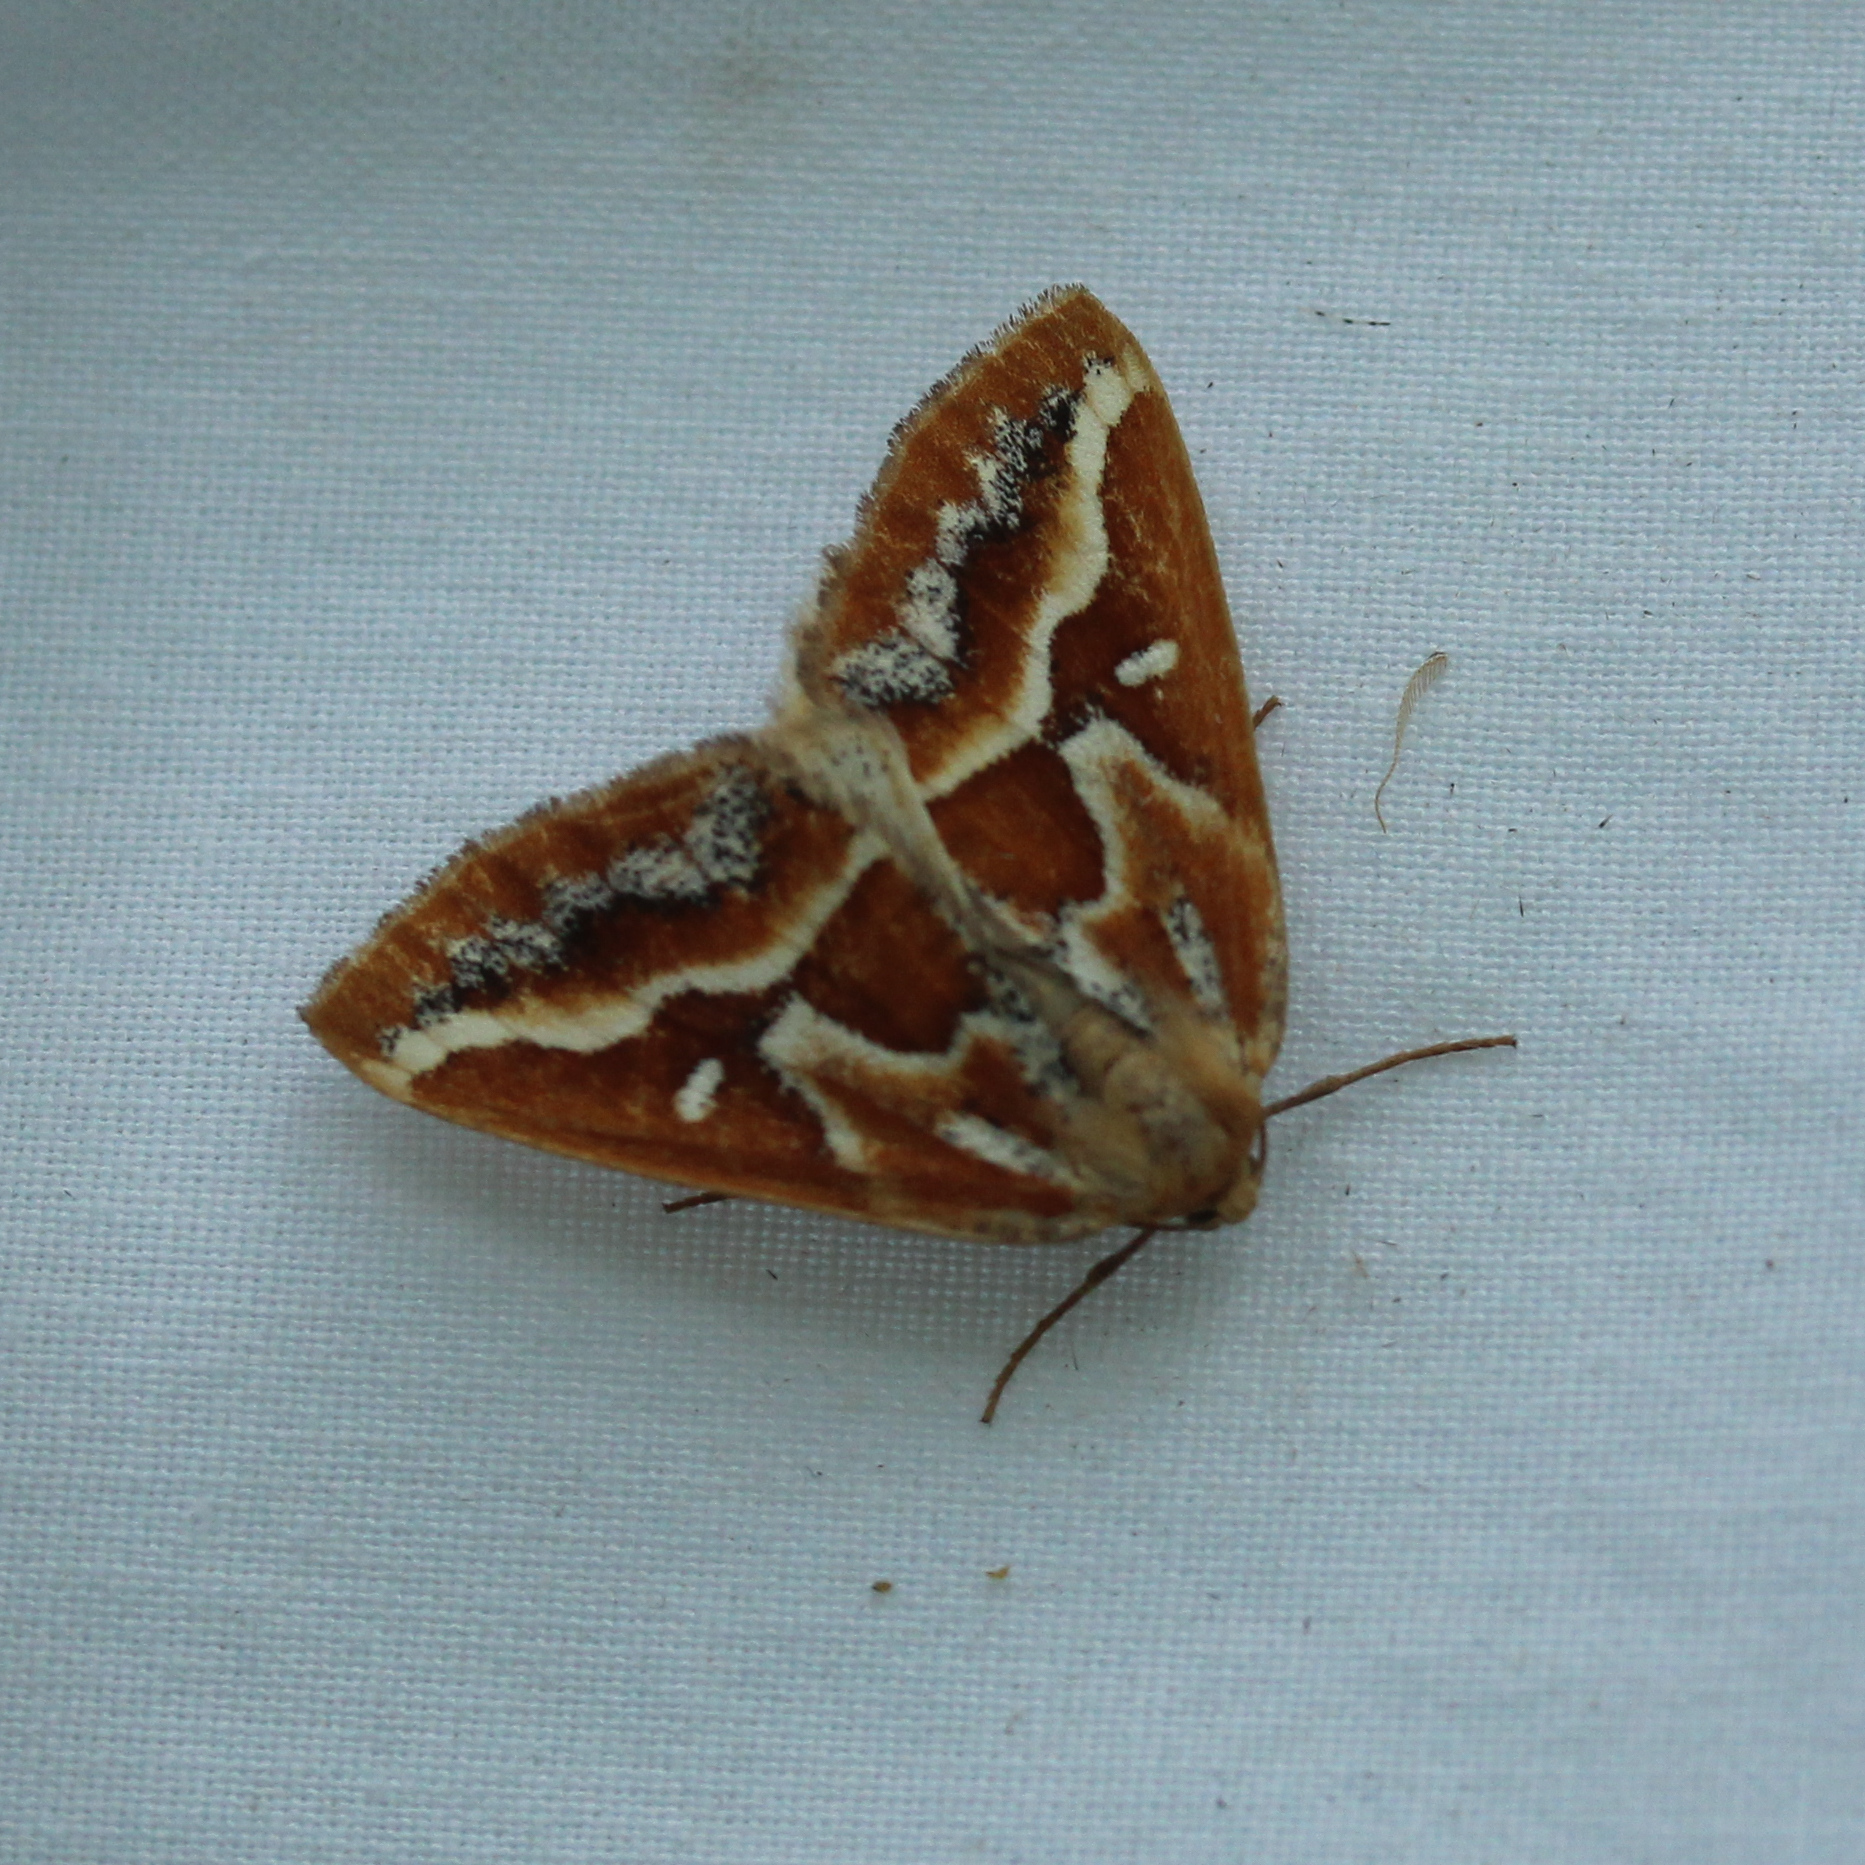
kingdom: Animalia
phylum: Arthropoda
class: Insecta
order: Lepidoptera
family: Geometridae
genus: Caripeta
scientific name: Caripeta angustiorata
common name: Brown pine looper
